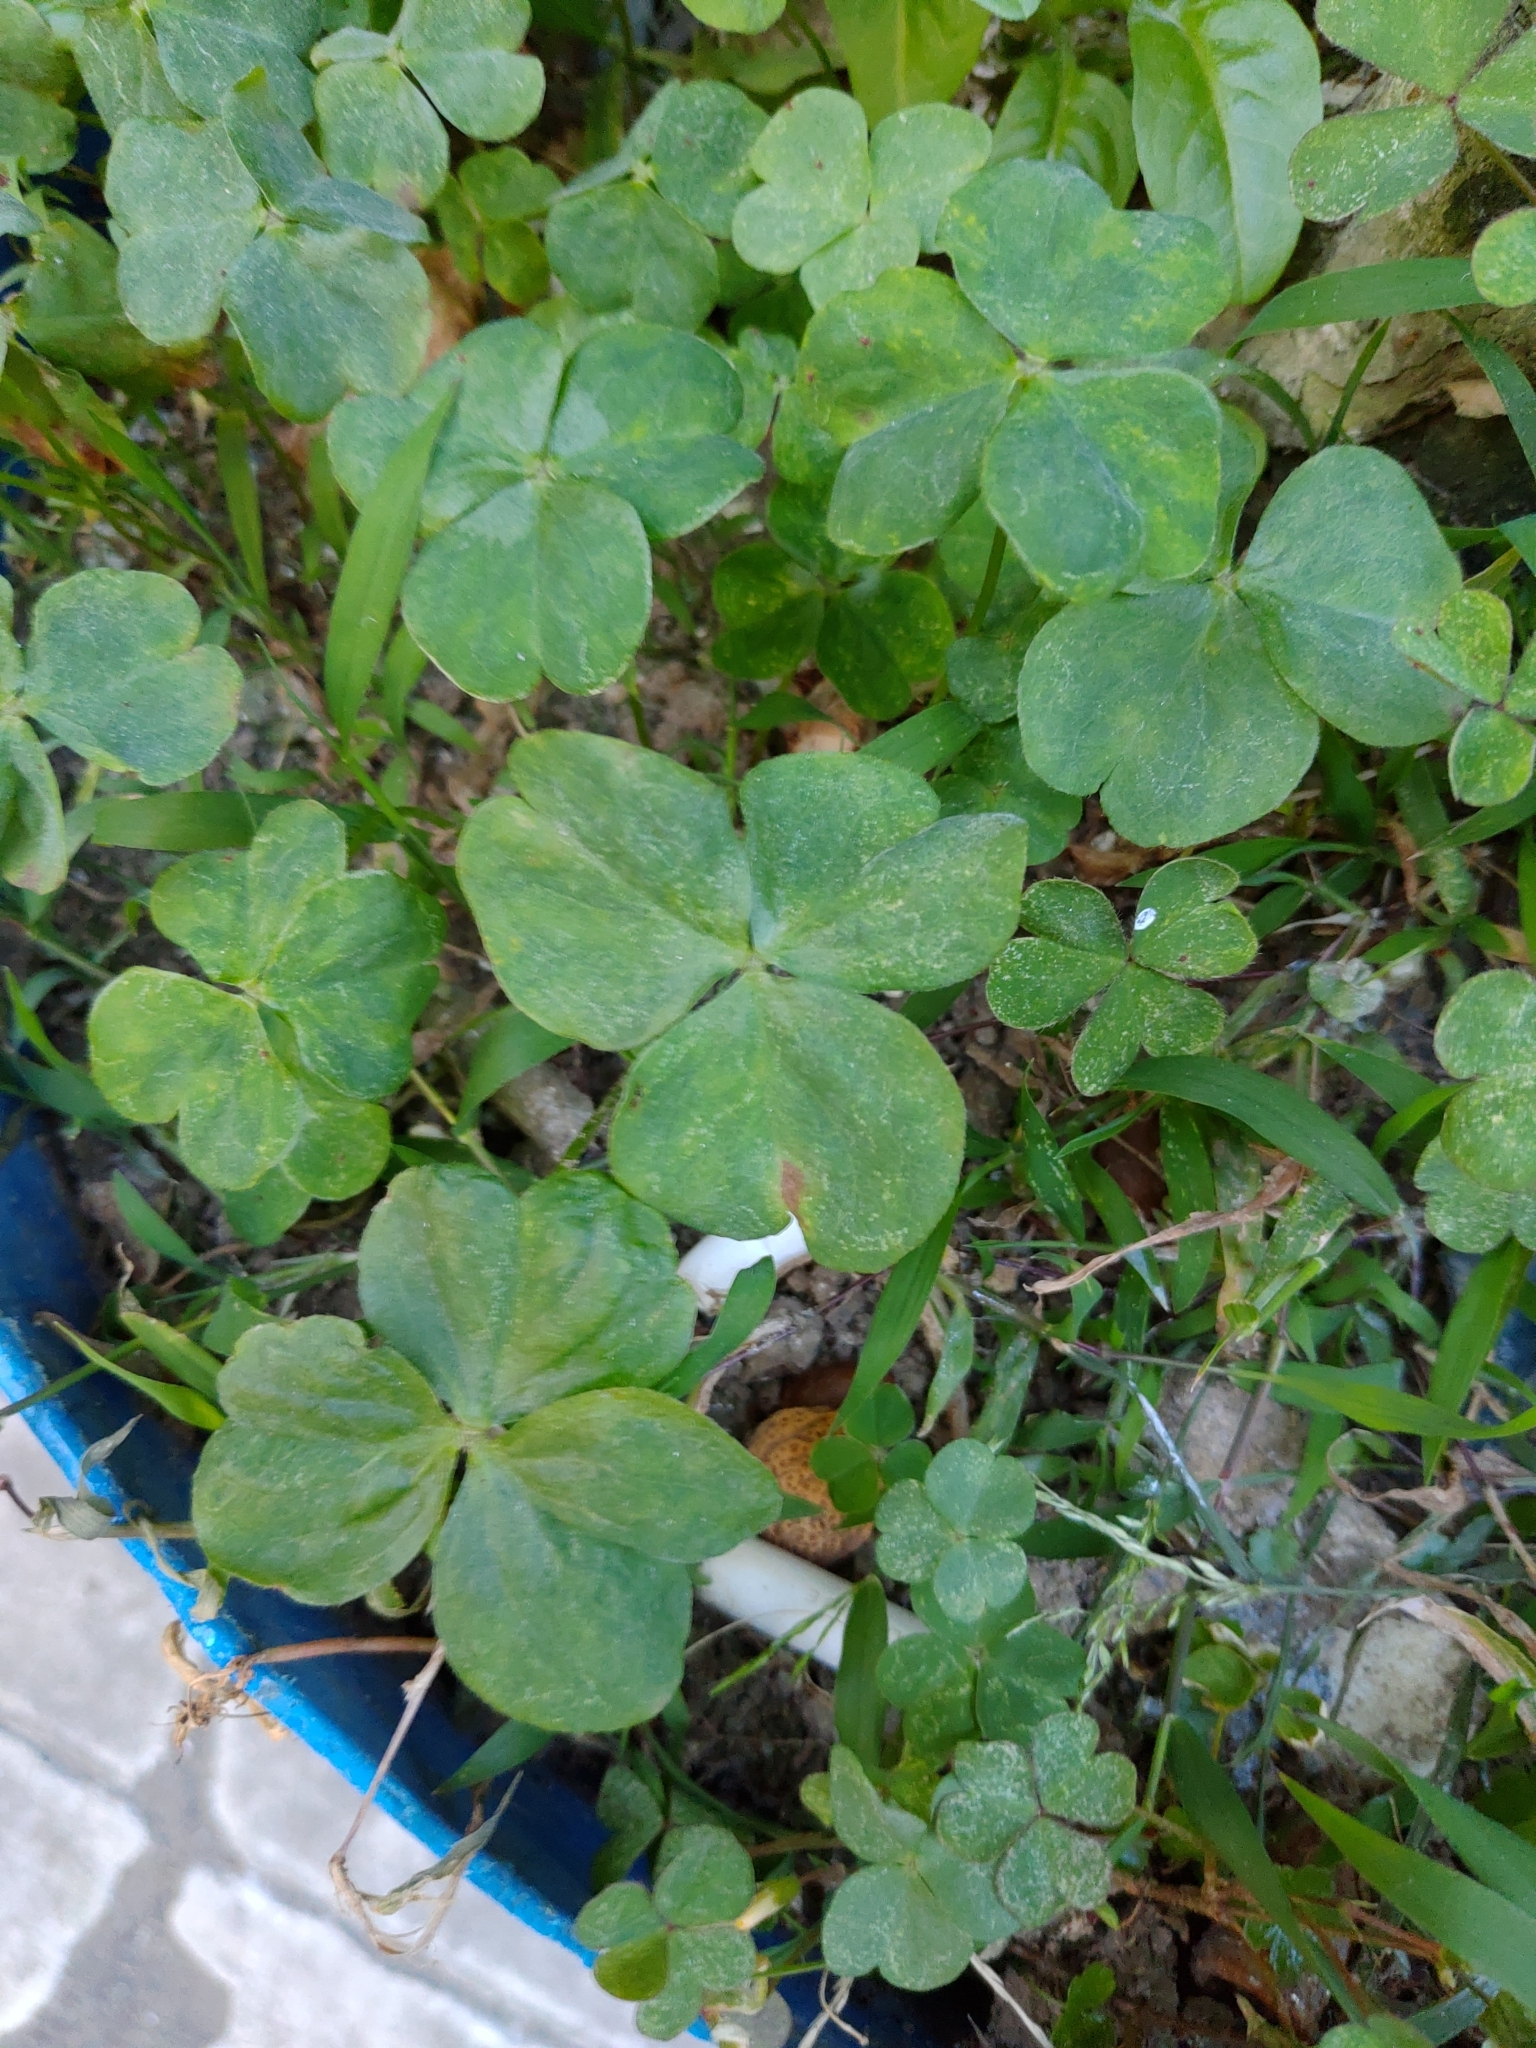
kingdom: Plantae
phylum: Tracheophyta
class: Magnoliopsida
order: Oxalidales
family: Oxalidaceae
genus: Oxalis
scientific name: Oxalis debilis
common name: Large-flowered pink-sorrel
